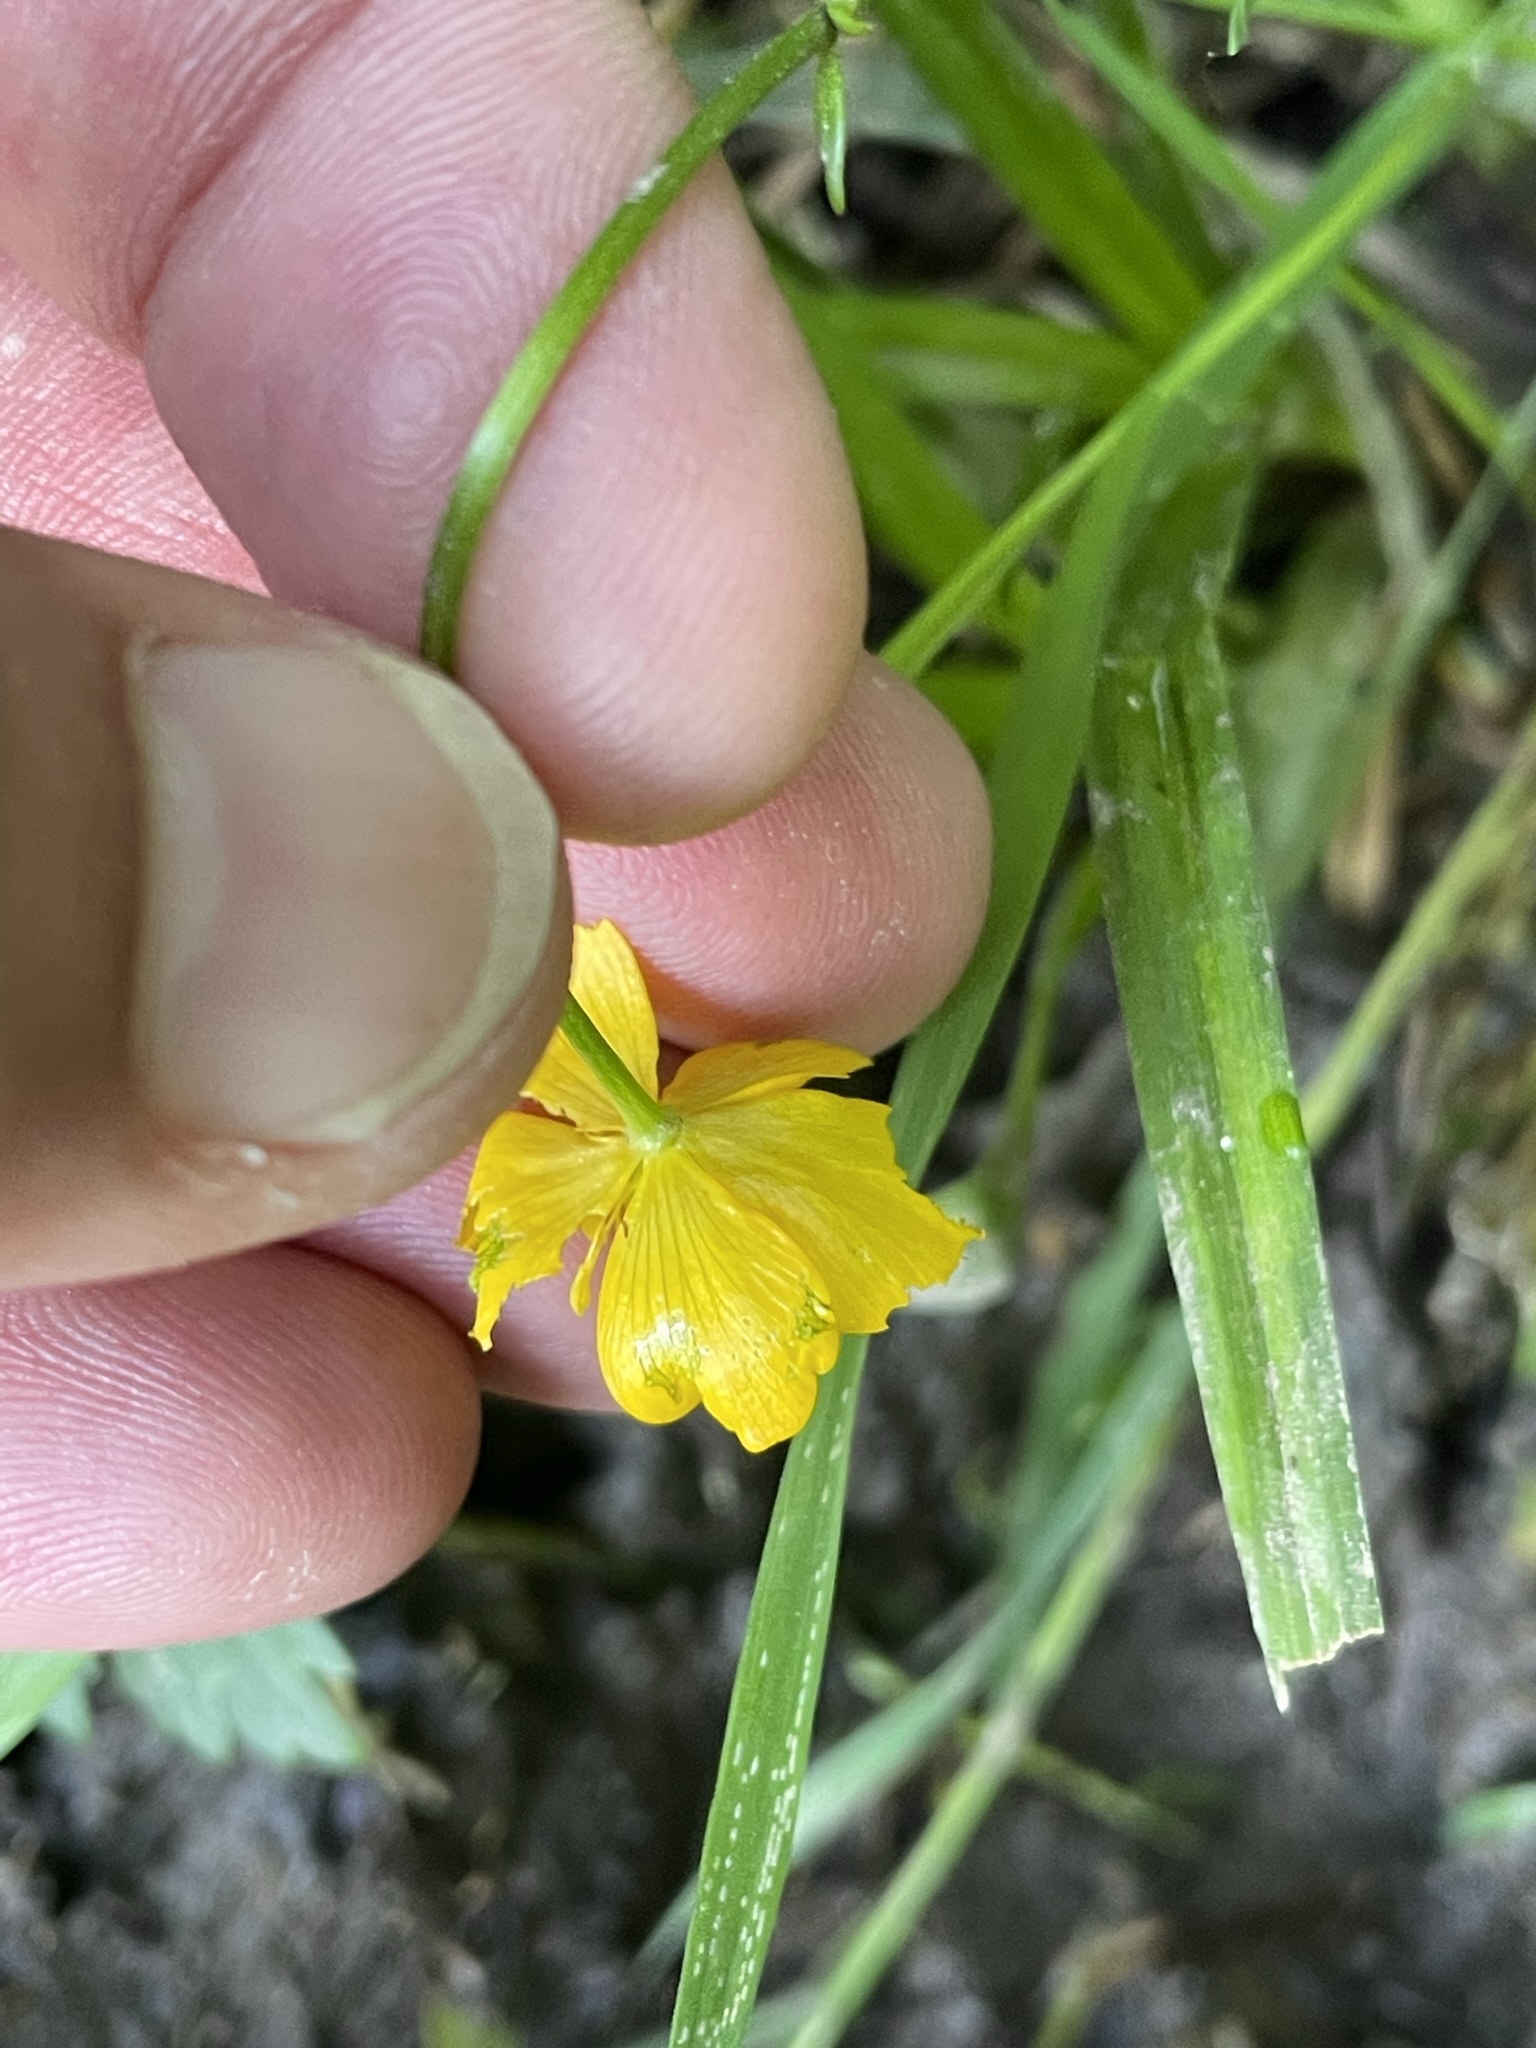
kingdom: Plantae
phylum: Tracheophyta
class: Magnoliopsida
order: Ranunculales
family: Ranunculaceae
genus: Ranunculus
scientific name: Ranunculus repens
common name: Creeping buttercup
